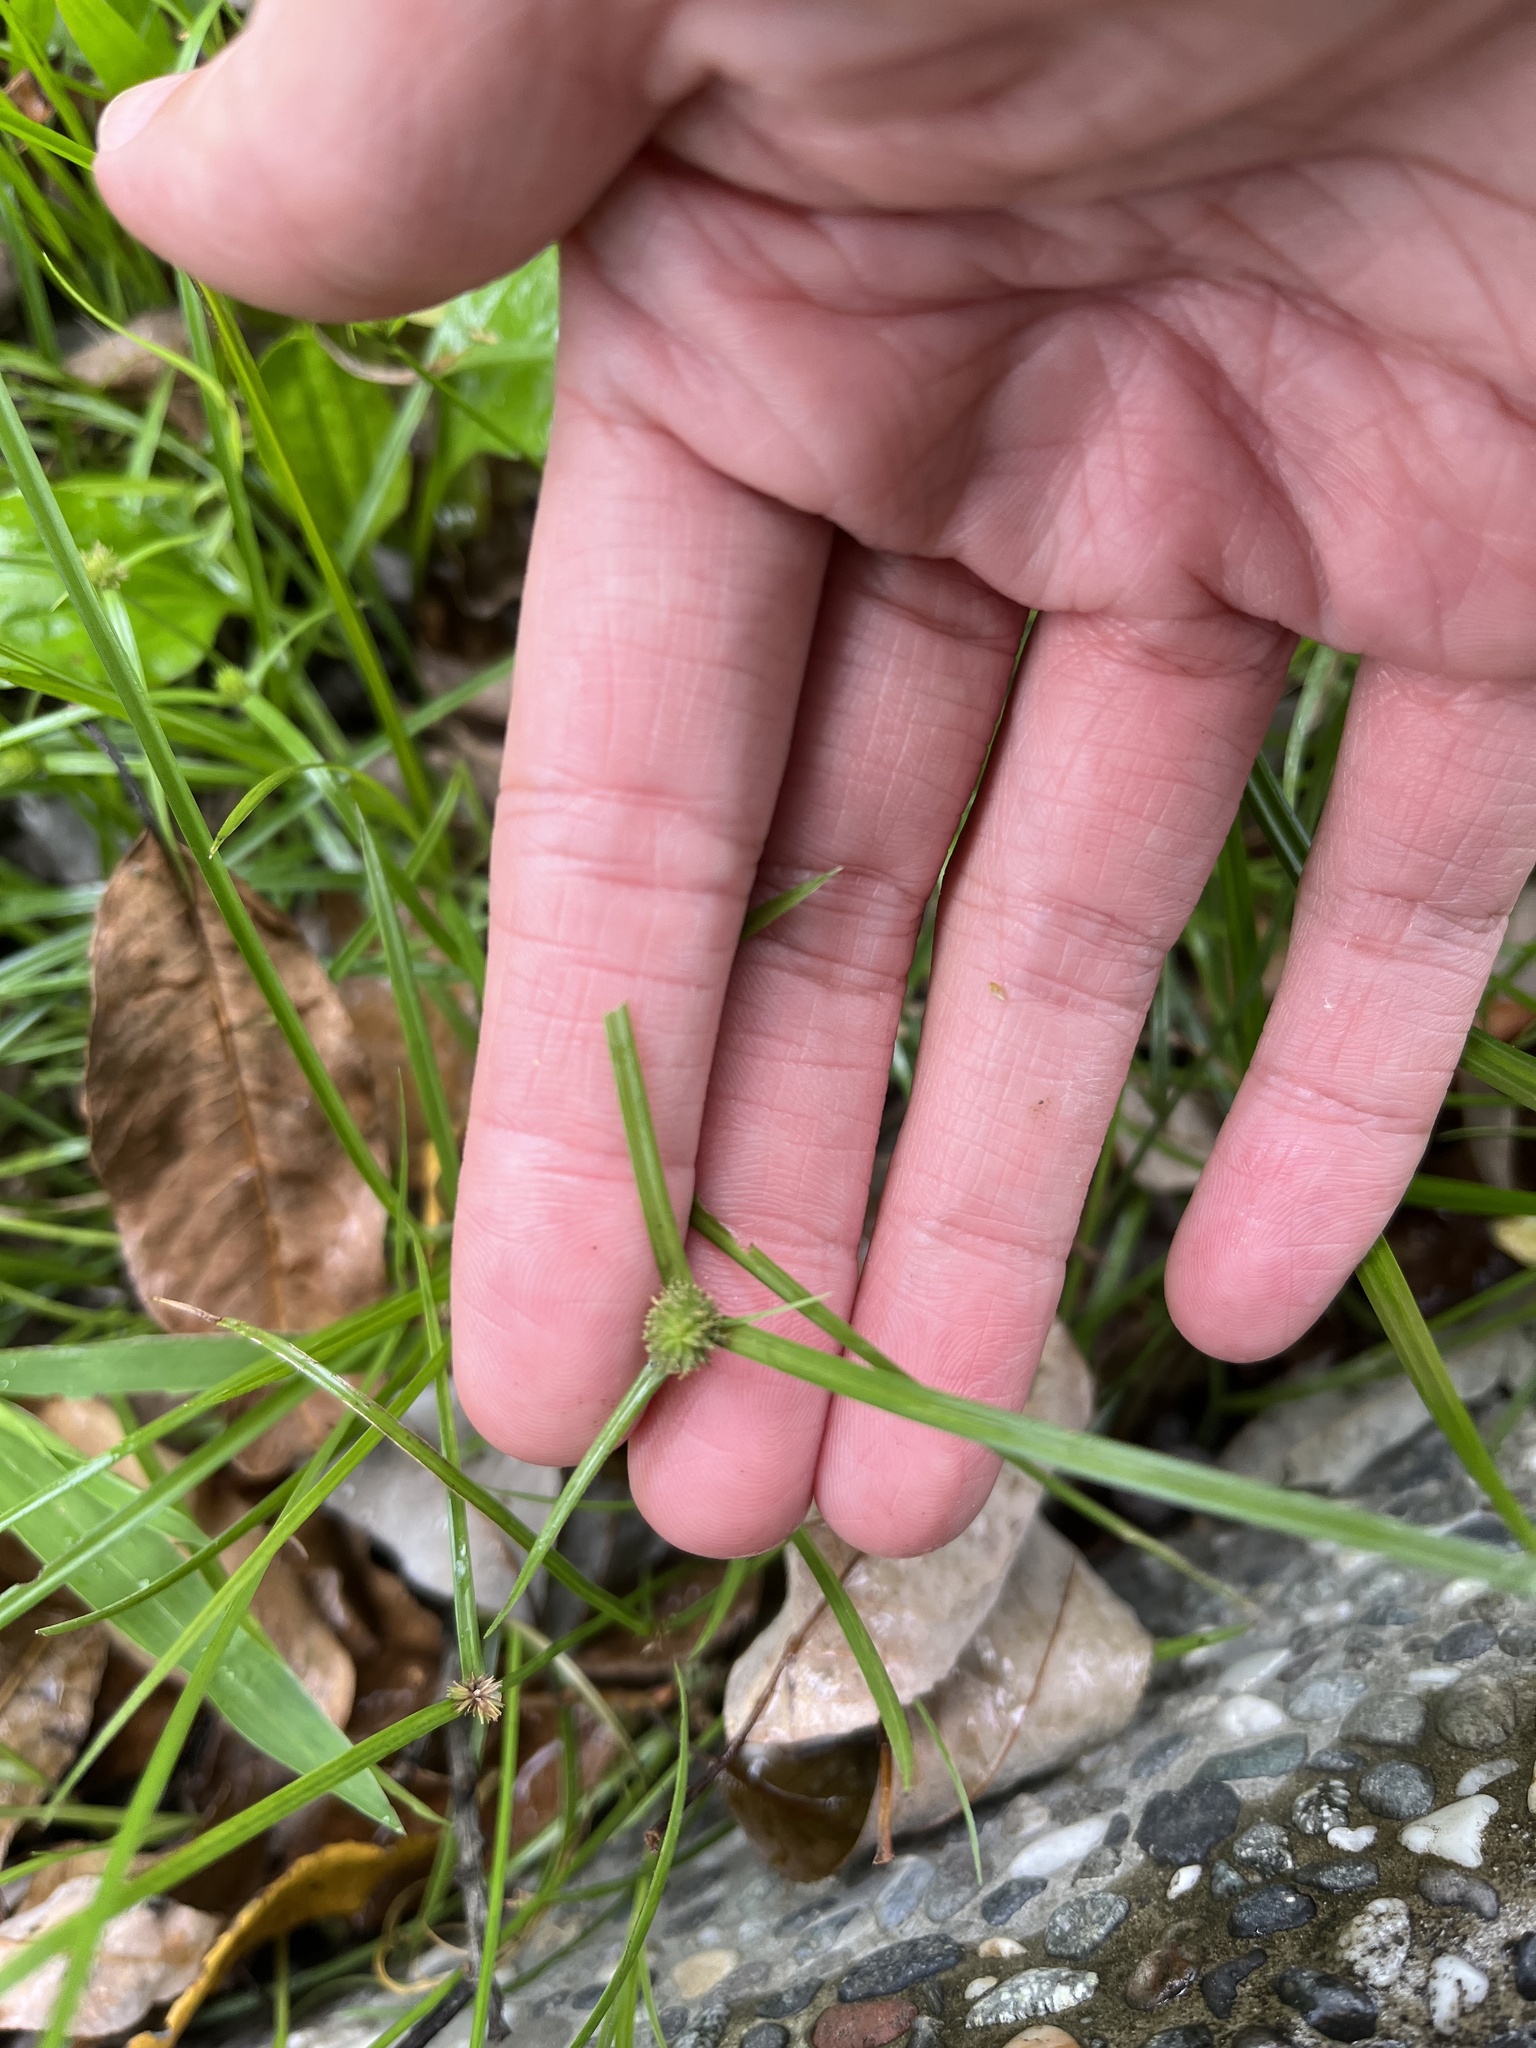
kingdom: Plantae
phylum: Tracheophyta
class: Liliopsida
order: Poales
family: Cyperaceae
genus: Cyperus
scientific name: Cyperus brevifolius
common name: Globe kyllinga
